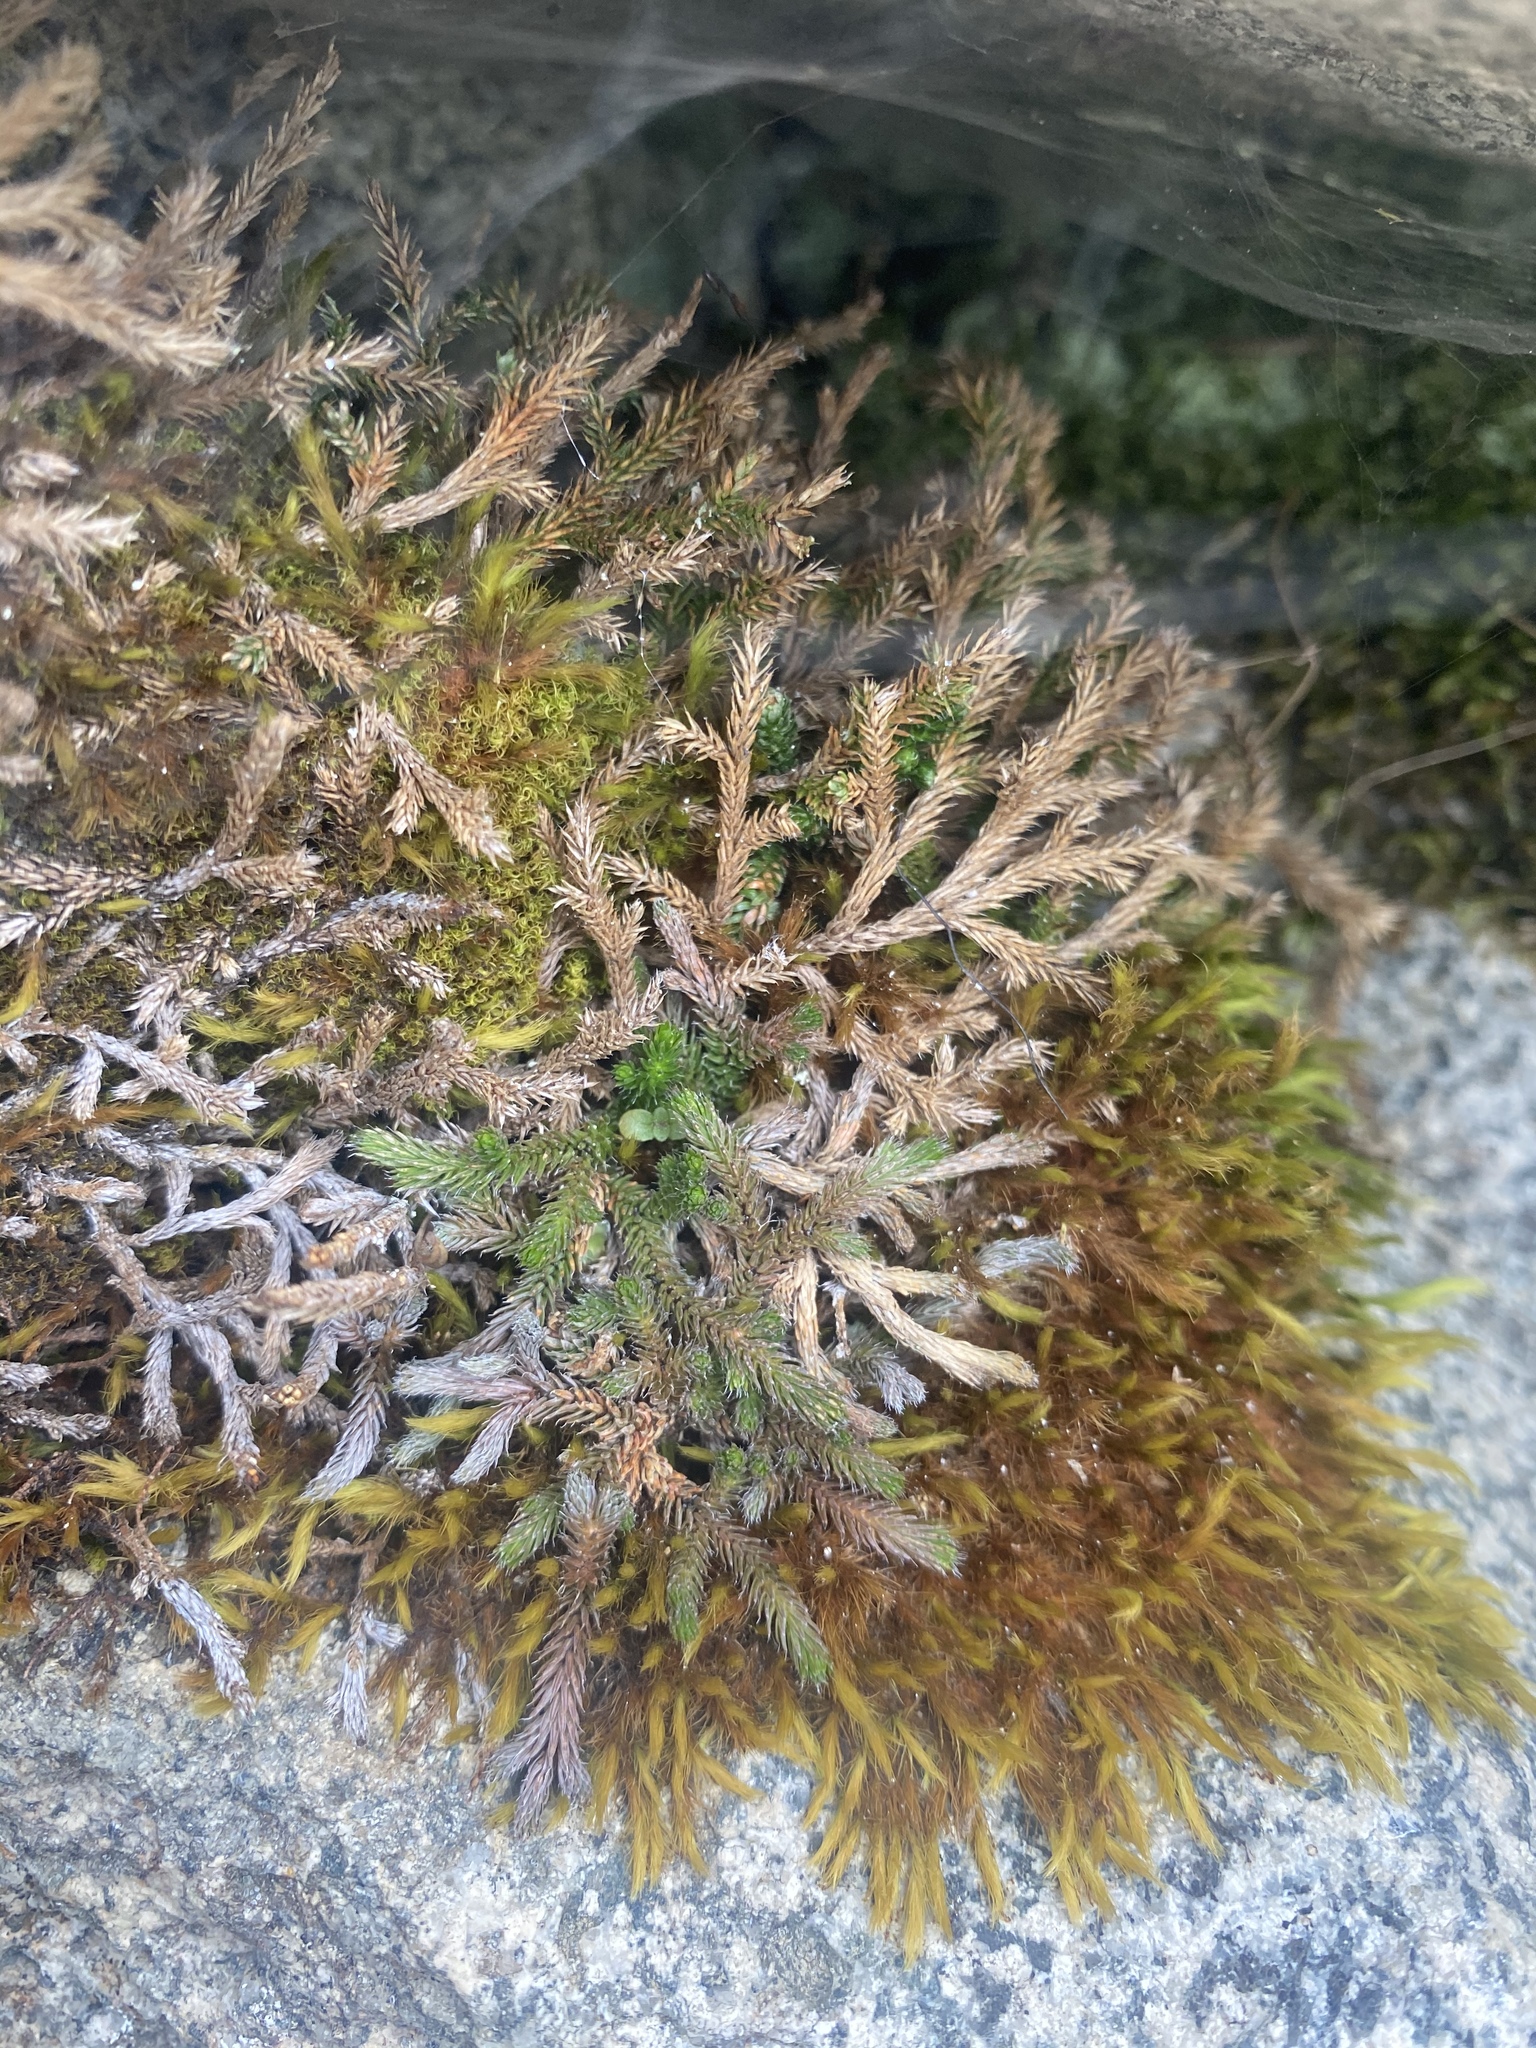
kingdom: Plantae
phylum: Tracheophyta
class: Lycopodiopsida
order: Selaginellales
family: Selaginellaceae
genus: Selaginella
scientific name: Selaginella wallacei
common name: Wallace's selaginella
